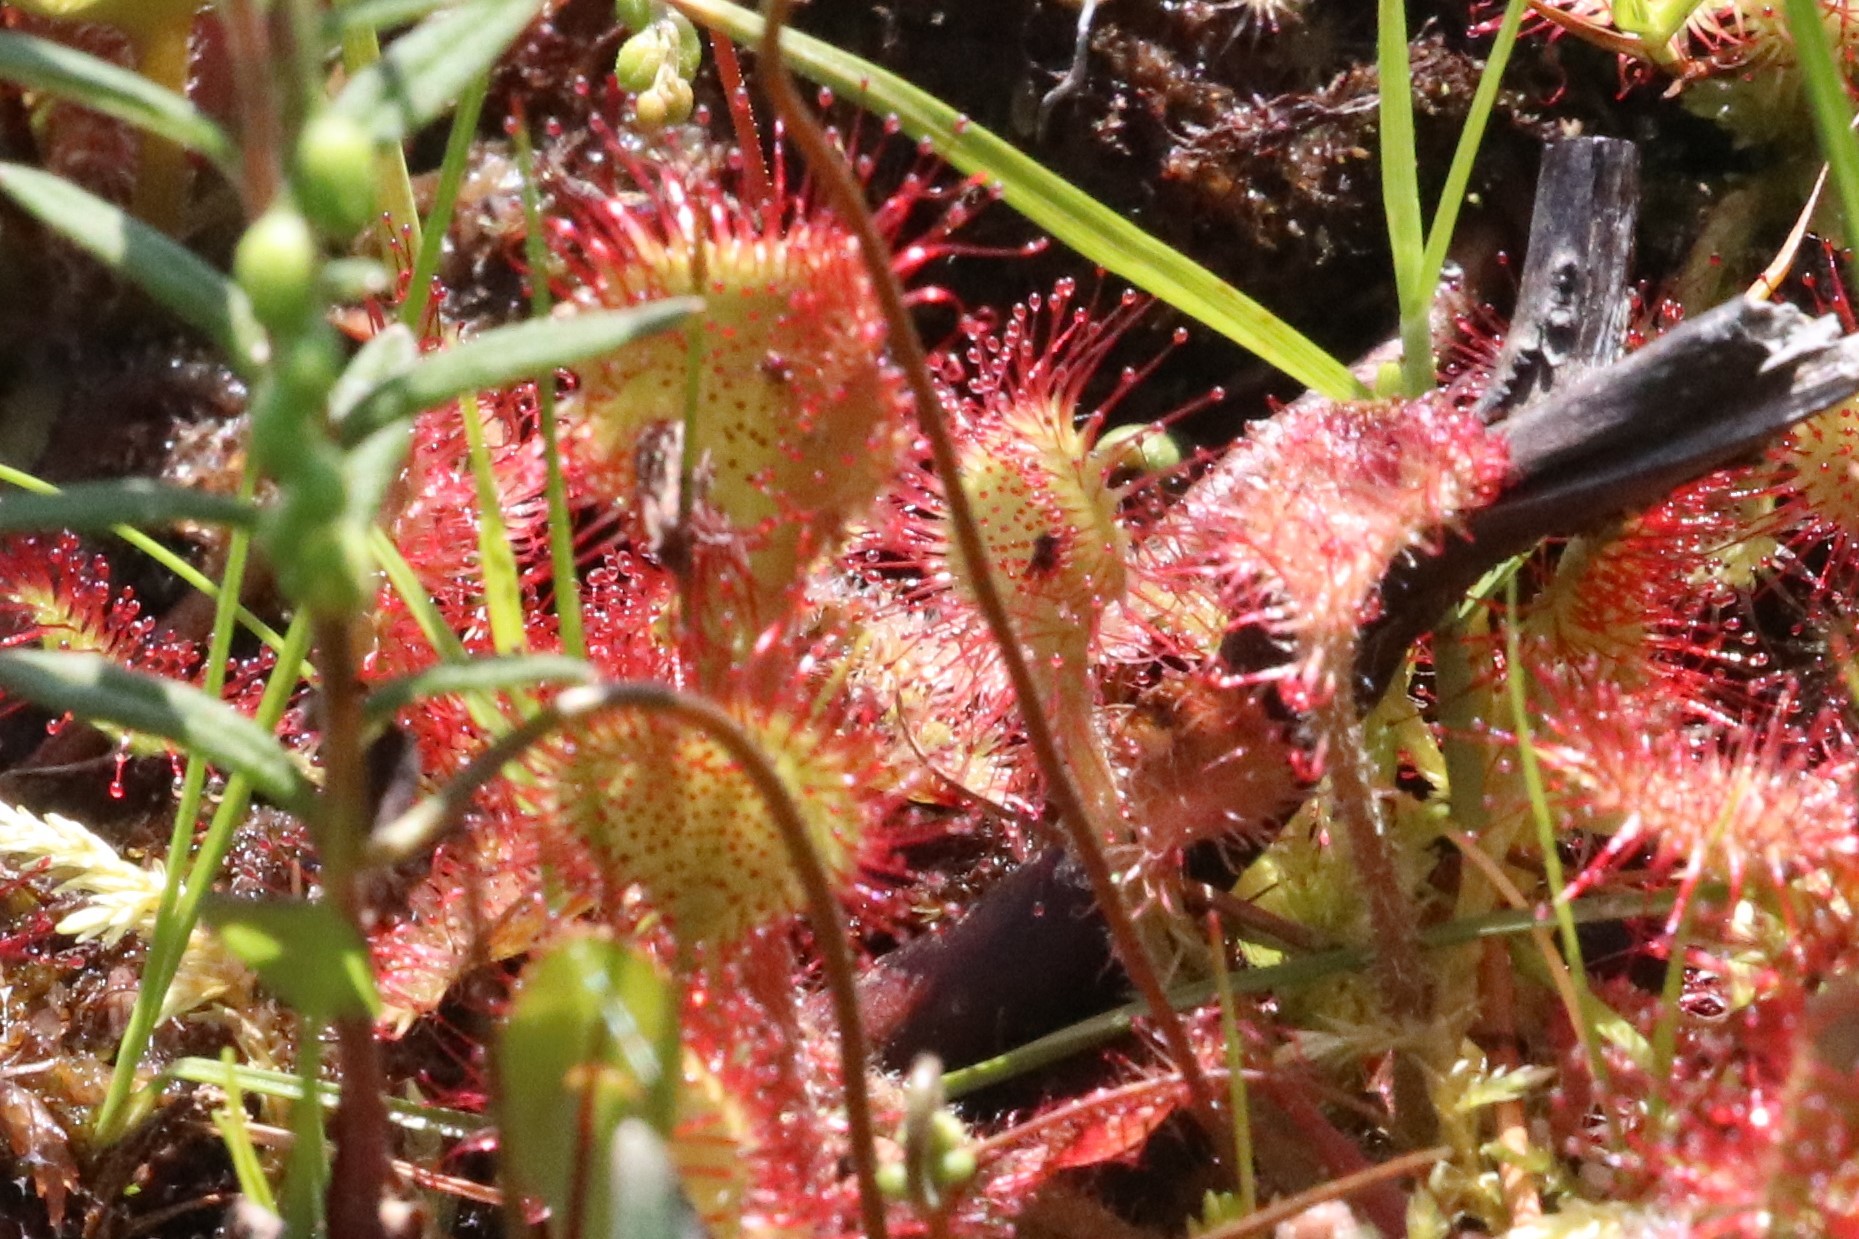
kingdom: Plantae
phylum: Tracheophyta
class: Magnoliopsida
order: Caryophyllales
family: Droseraceae
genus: Drosera
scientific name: Drosera rotundifolia
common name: Round-leaved sundew
